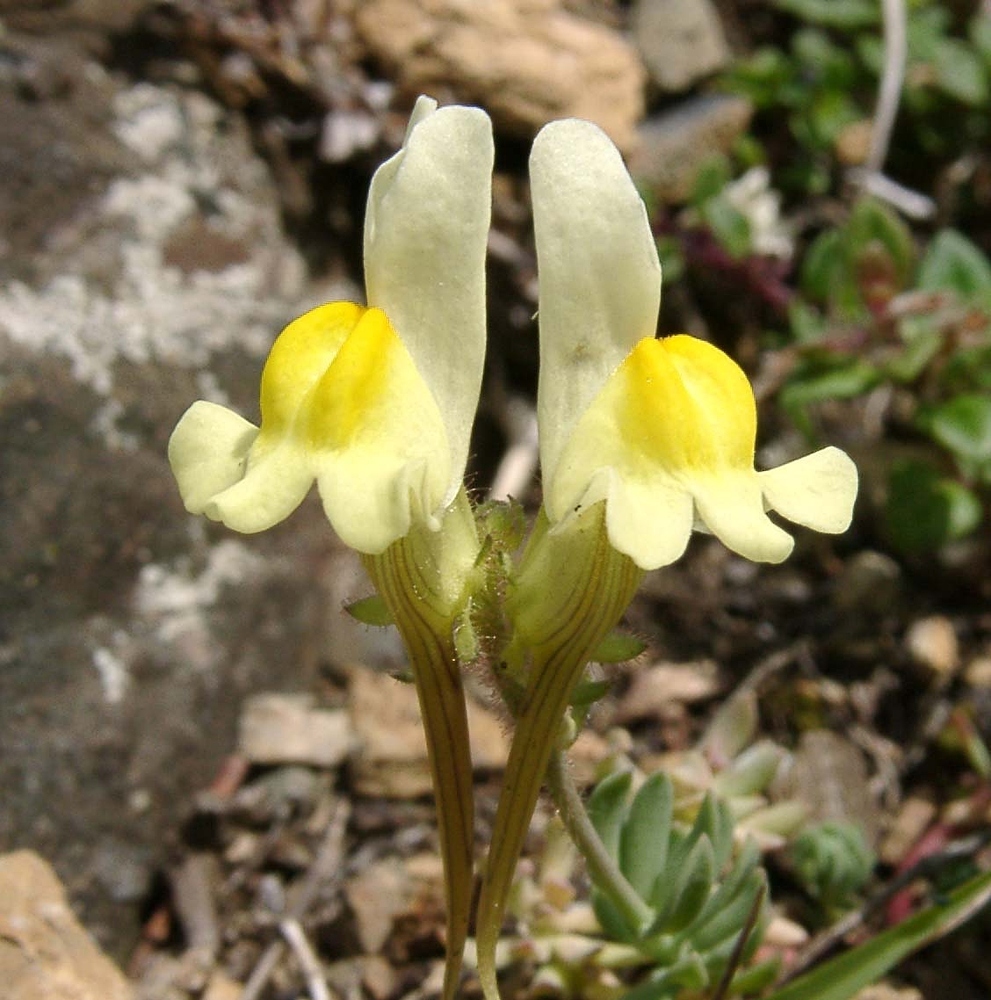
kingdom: Plantae
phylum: Tracheophyta
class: Magnoliopsida
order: Lamiales
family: Plantaginaceae
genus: Linaria
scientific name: Linaria supina
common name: Prostrate toadflax
